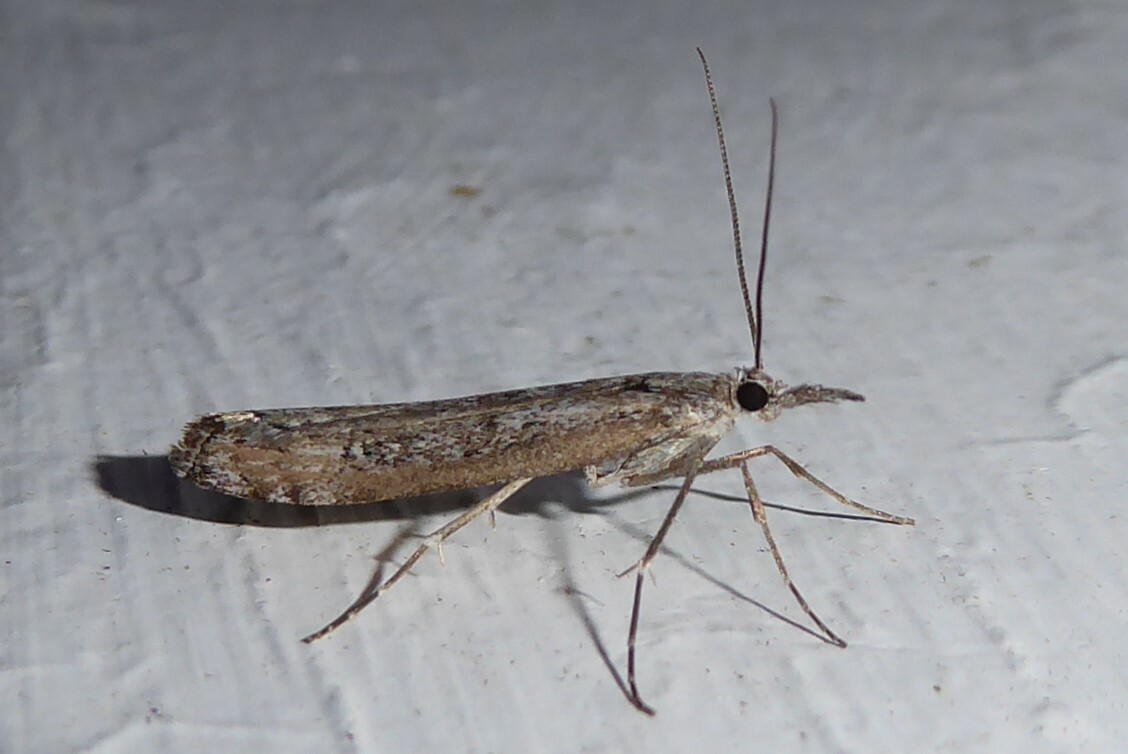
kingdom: Animalia
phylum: Arthropoda
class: Insecta
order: Lepidoptera
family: Crambidae
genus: Orocrambus
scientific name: Orocrambus cyclopicus
